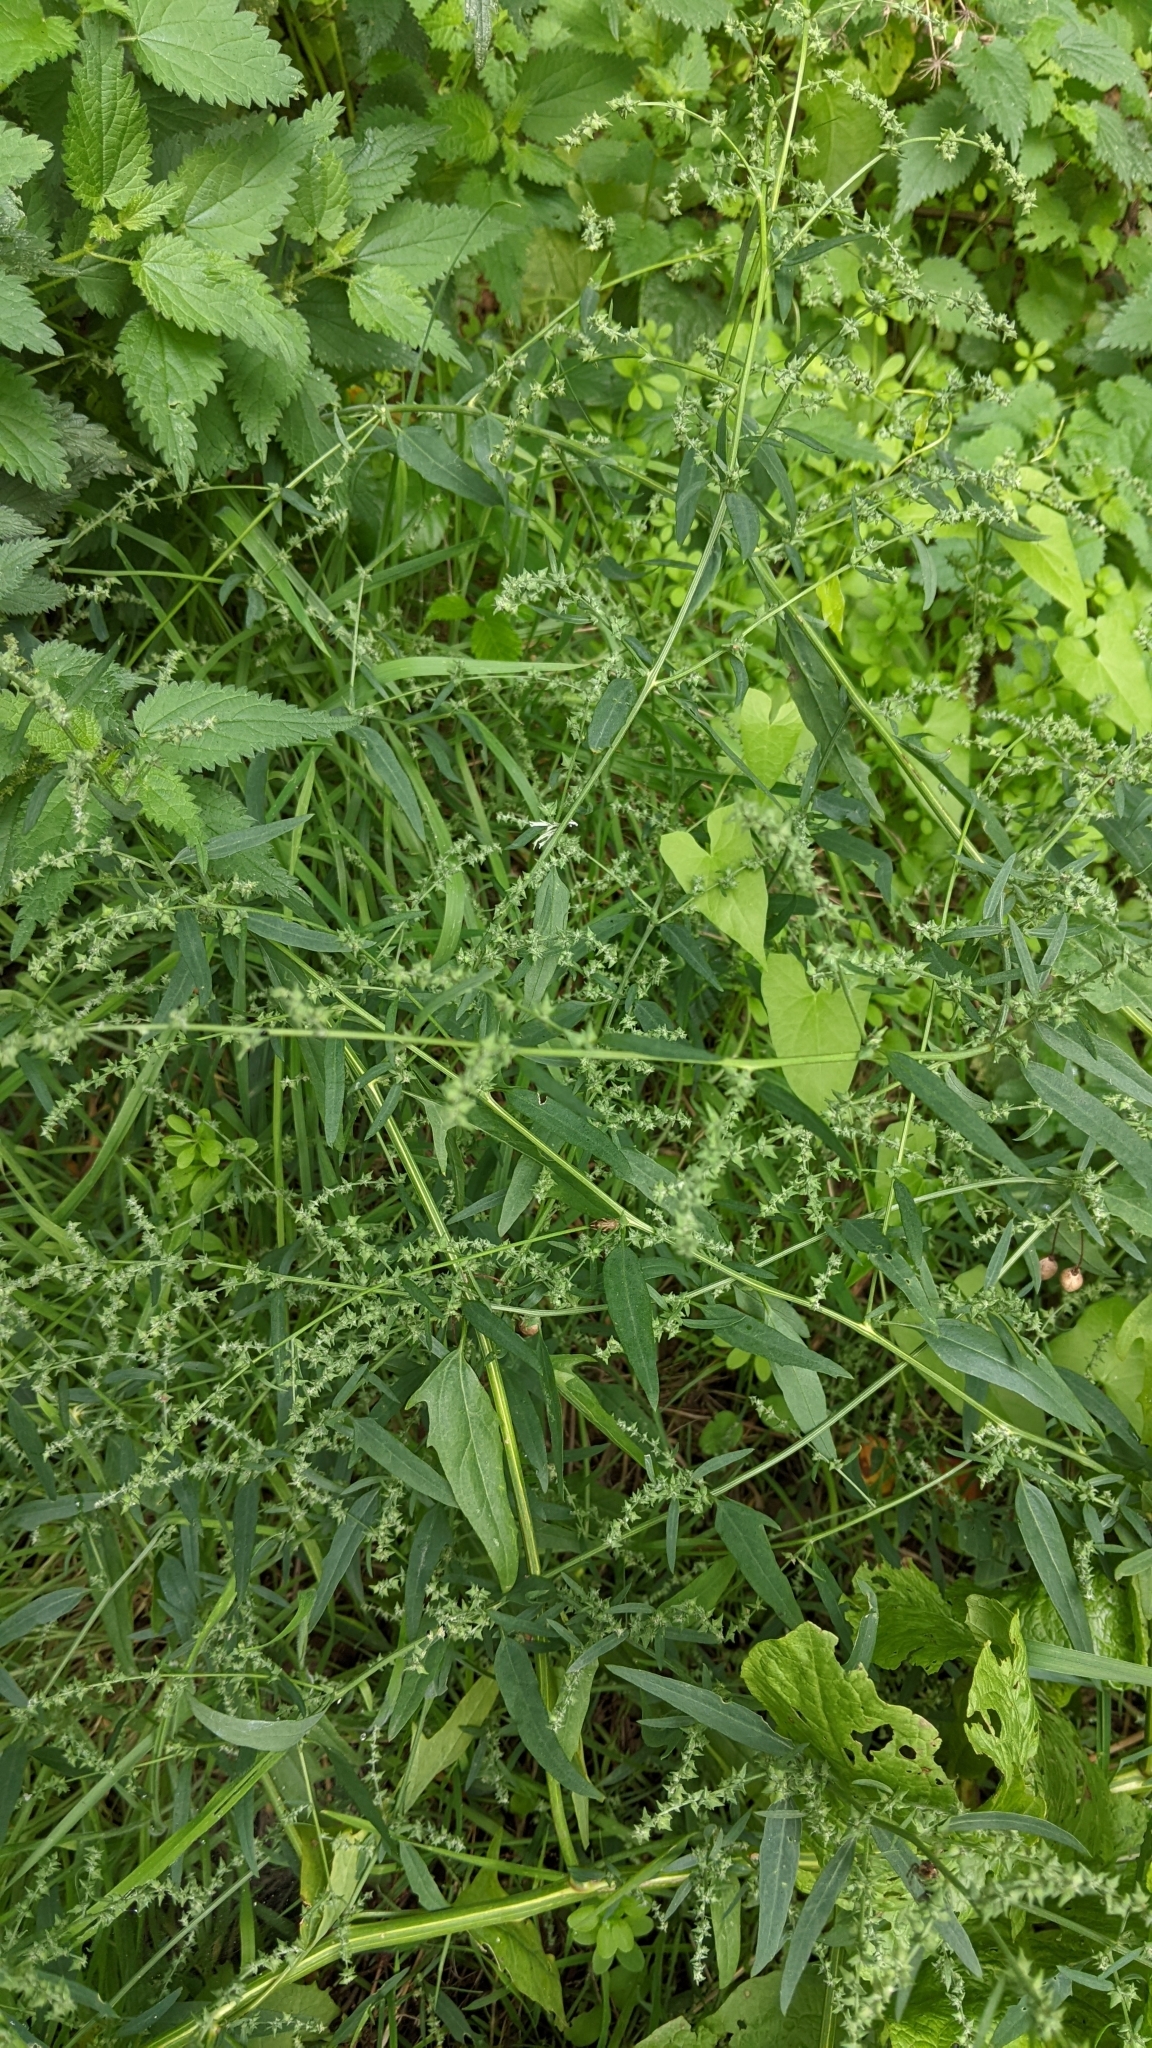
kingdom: Plantae
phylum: Tracheophyta
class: Magnoliopsida
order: Caryophyllales
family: Amaranthaceae
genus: Atriplex
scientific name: Atriplex patula
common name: Common orache
